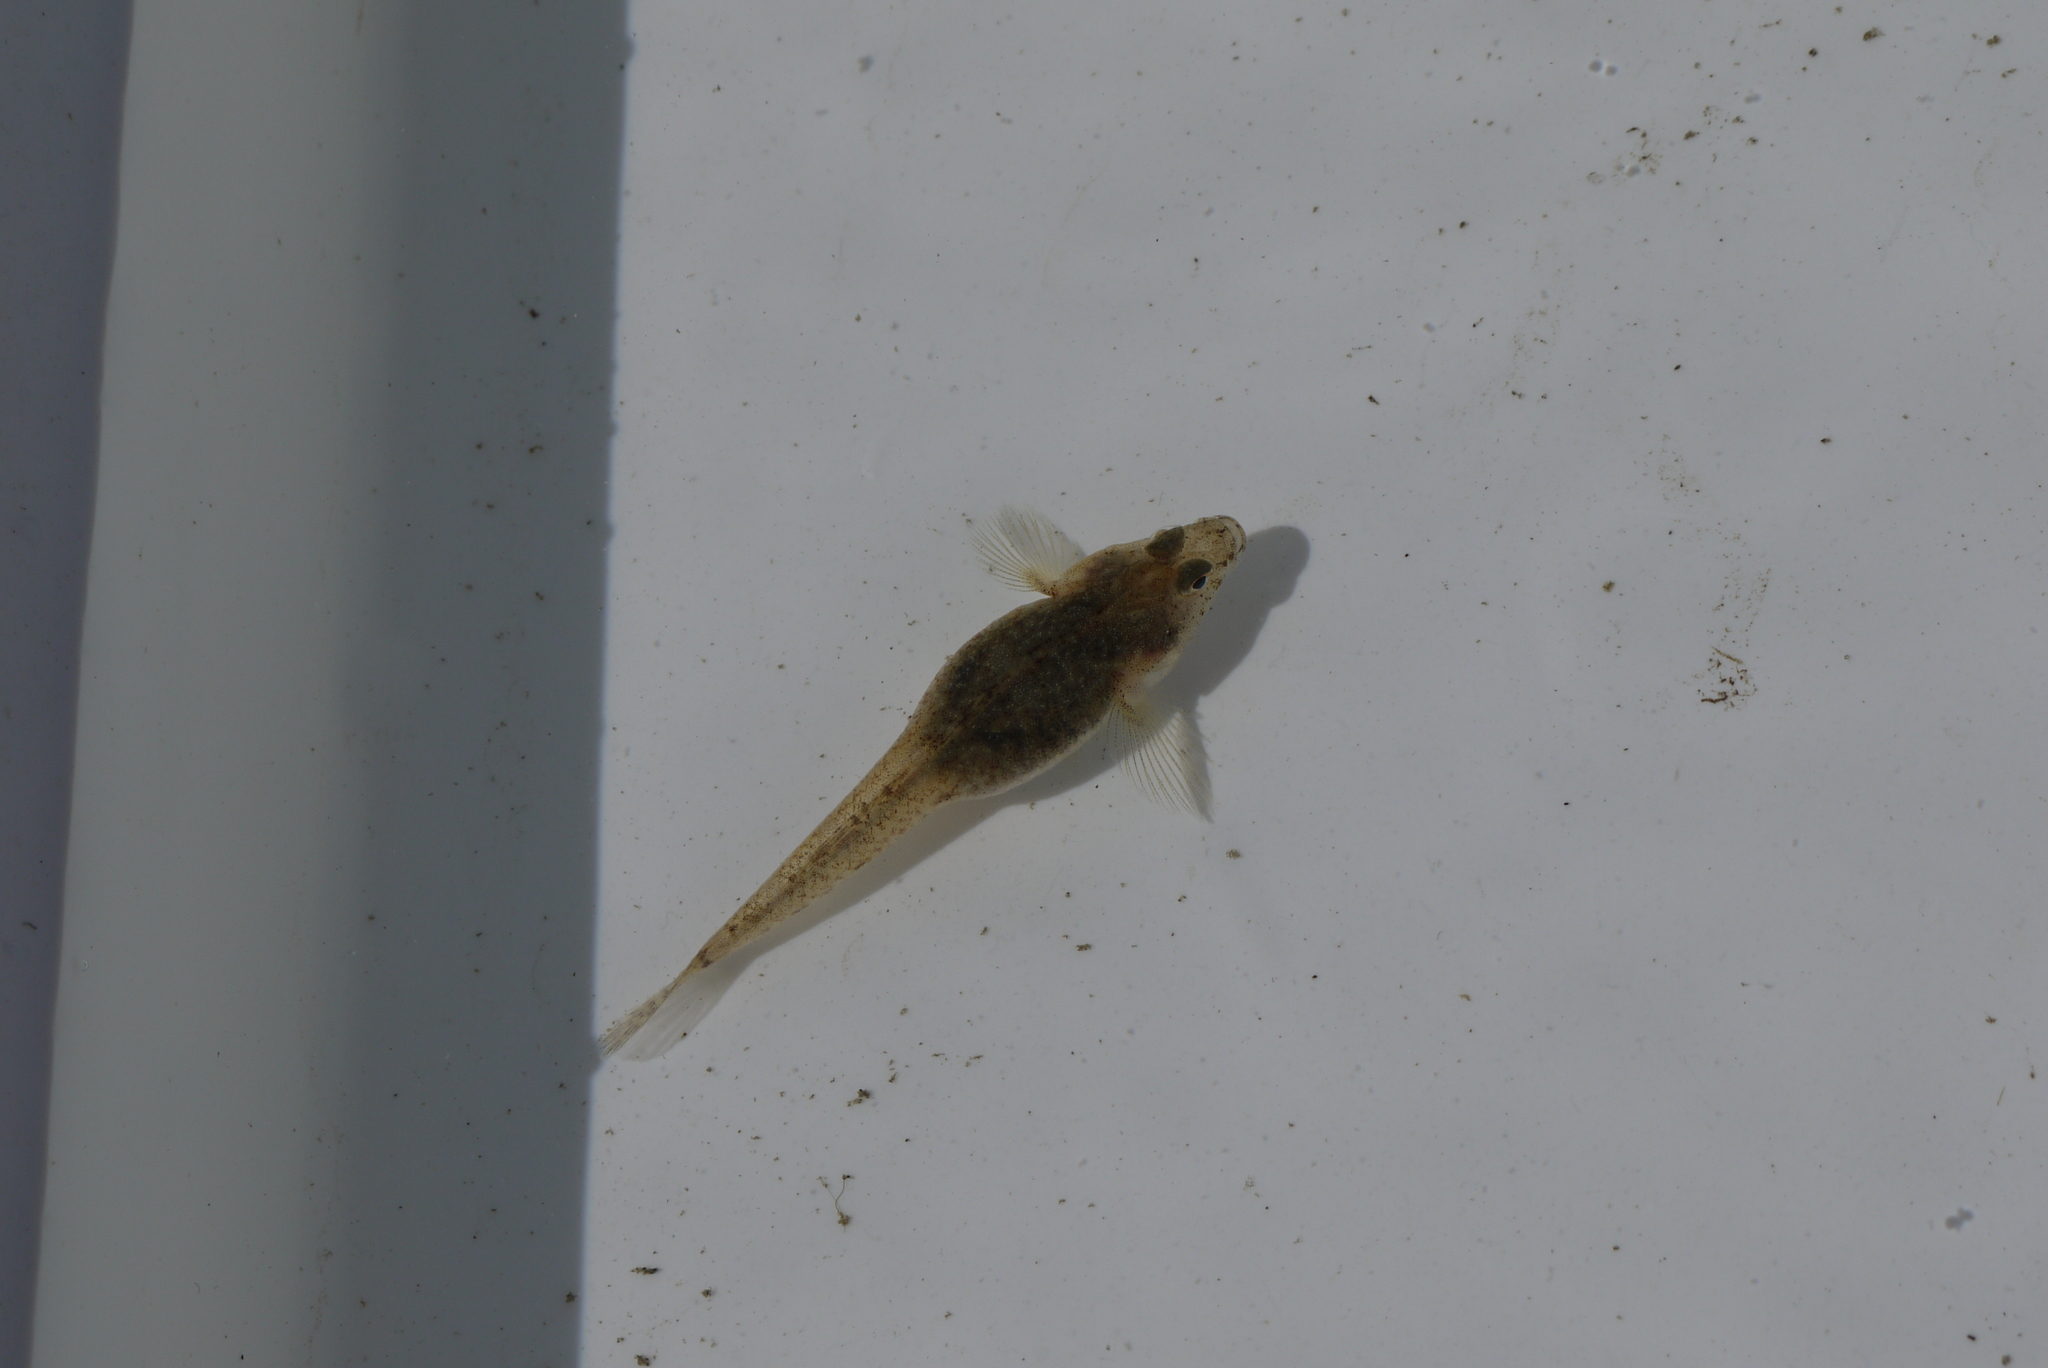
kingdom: Animalia
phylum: Chordata
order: Perciformes
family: Gobiidae
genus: Pomatoschistus
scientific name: Pomatoschistus microps
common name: Common goby
